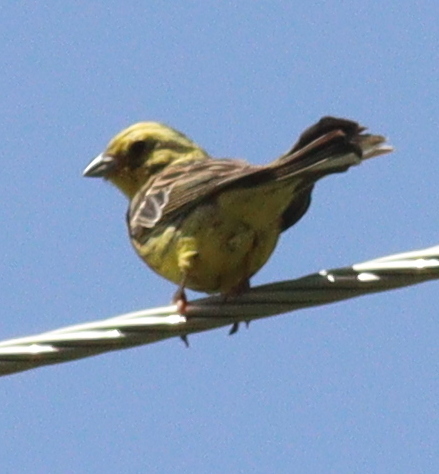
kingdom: Animalia
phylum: Chordata
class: Aves
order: Passeriformes
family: Emberizidae
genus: Emberiza
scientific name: Emberiza citrinella
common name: Yellowhammer
